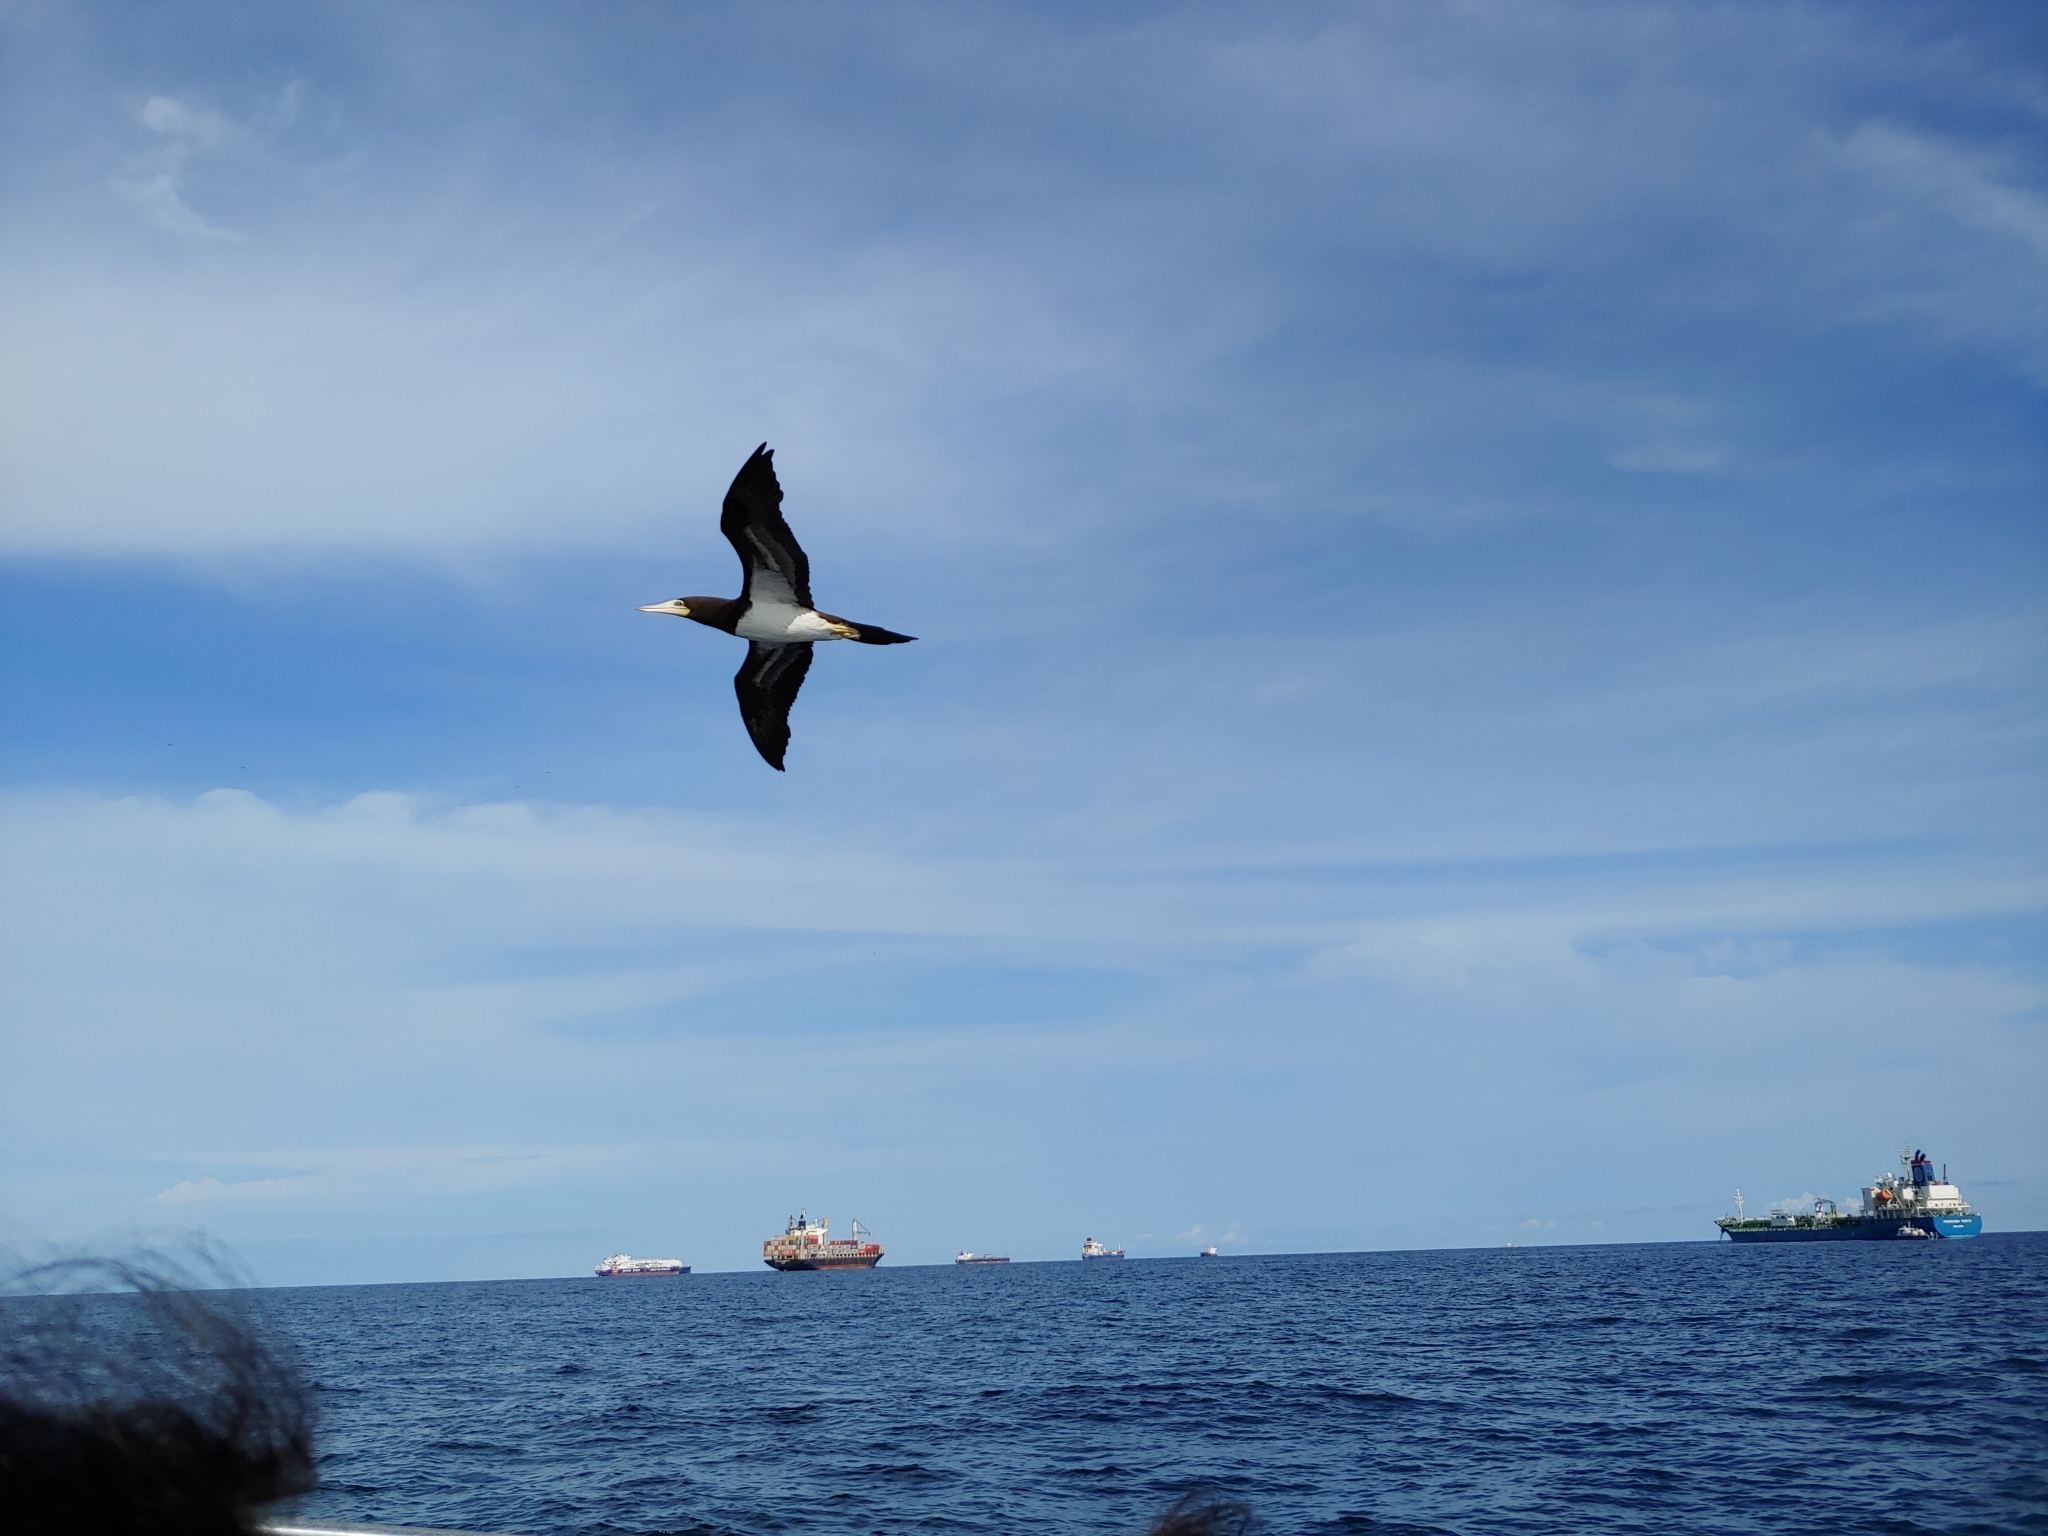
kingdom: Animalia
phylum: Chordata
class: Aves
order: Suliformes
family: Sulidae
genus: Sula
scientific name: Sula leucogaster
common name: Brown booby
